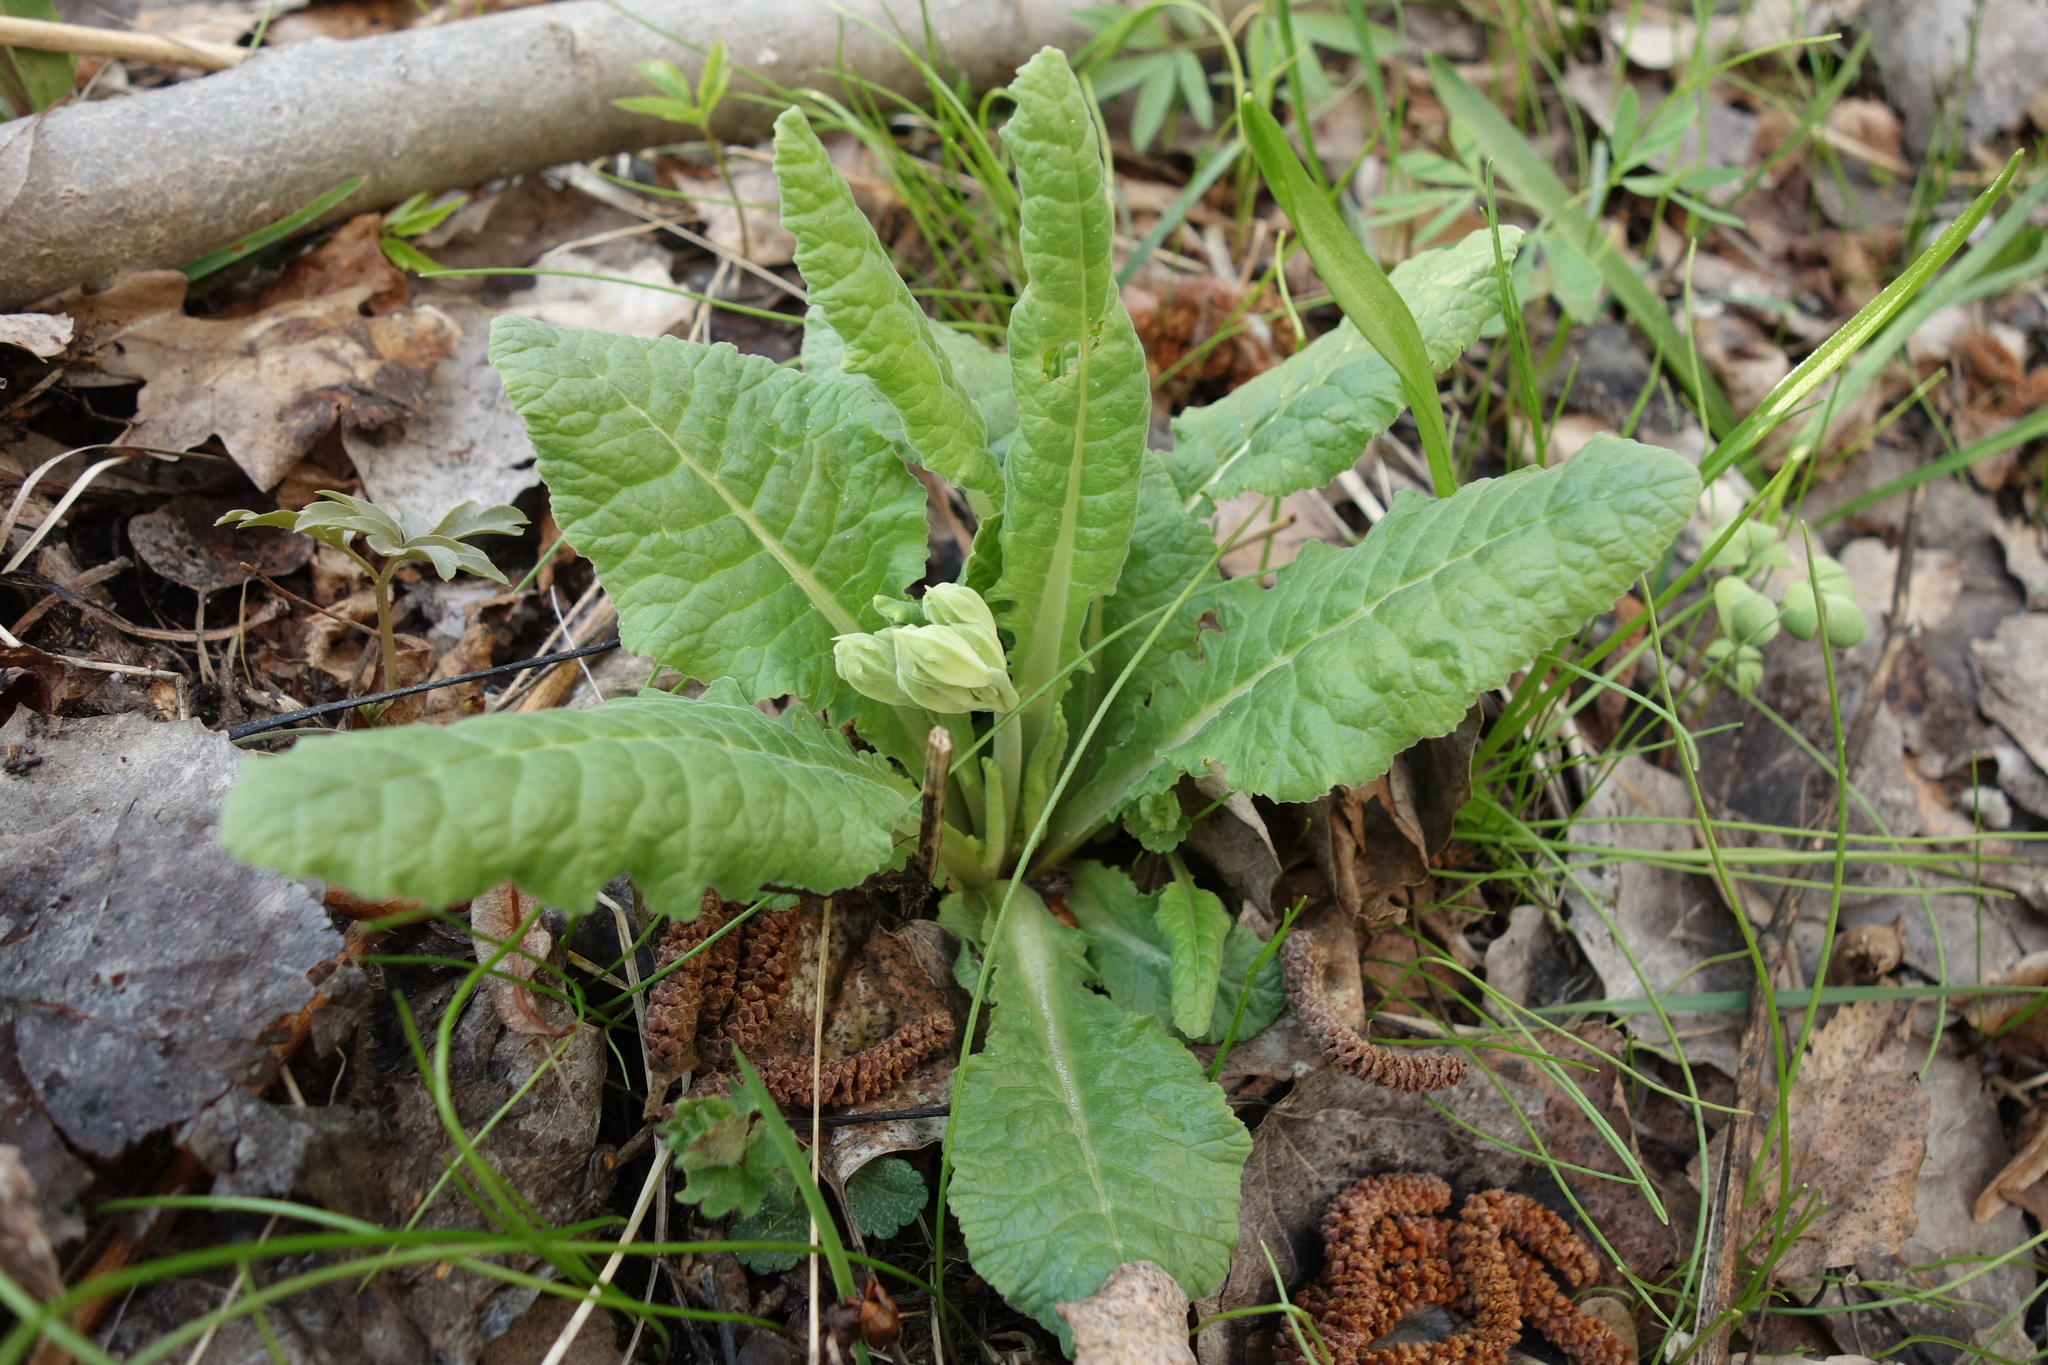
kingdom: Plantae
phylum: Tracheophyta
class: Magnoliopsida
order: Ericales
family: Primulaceae
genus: Primula
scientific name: Primula veris
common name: Cowslip
